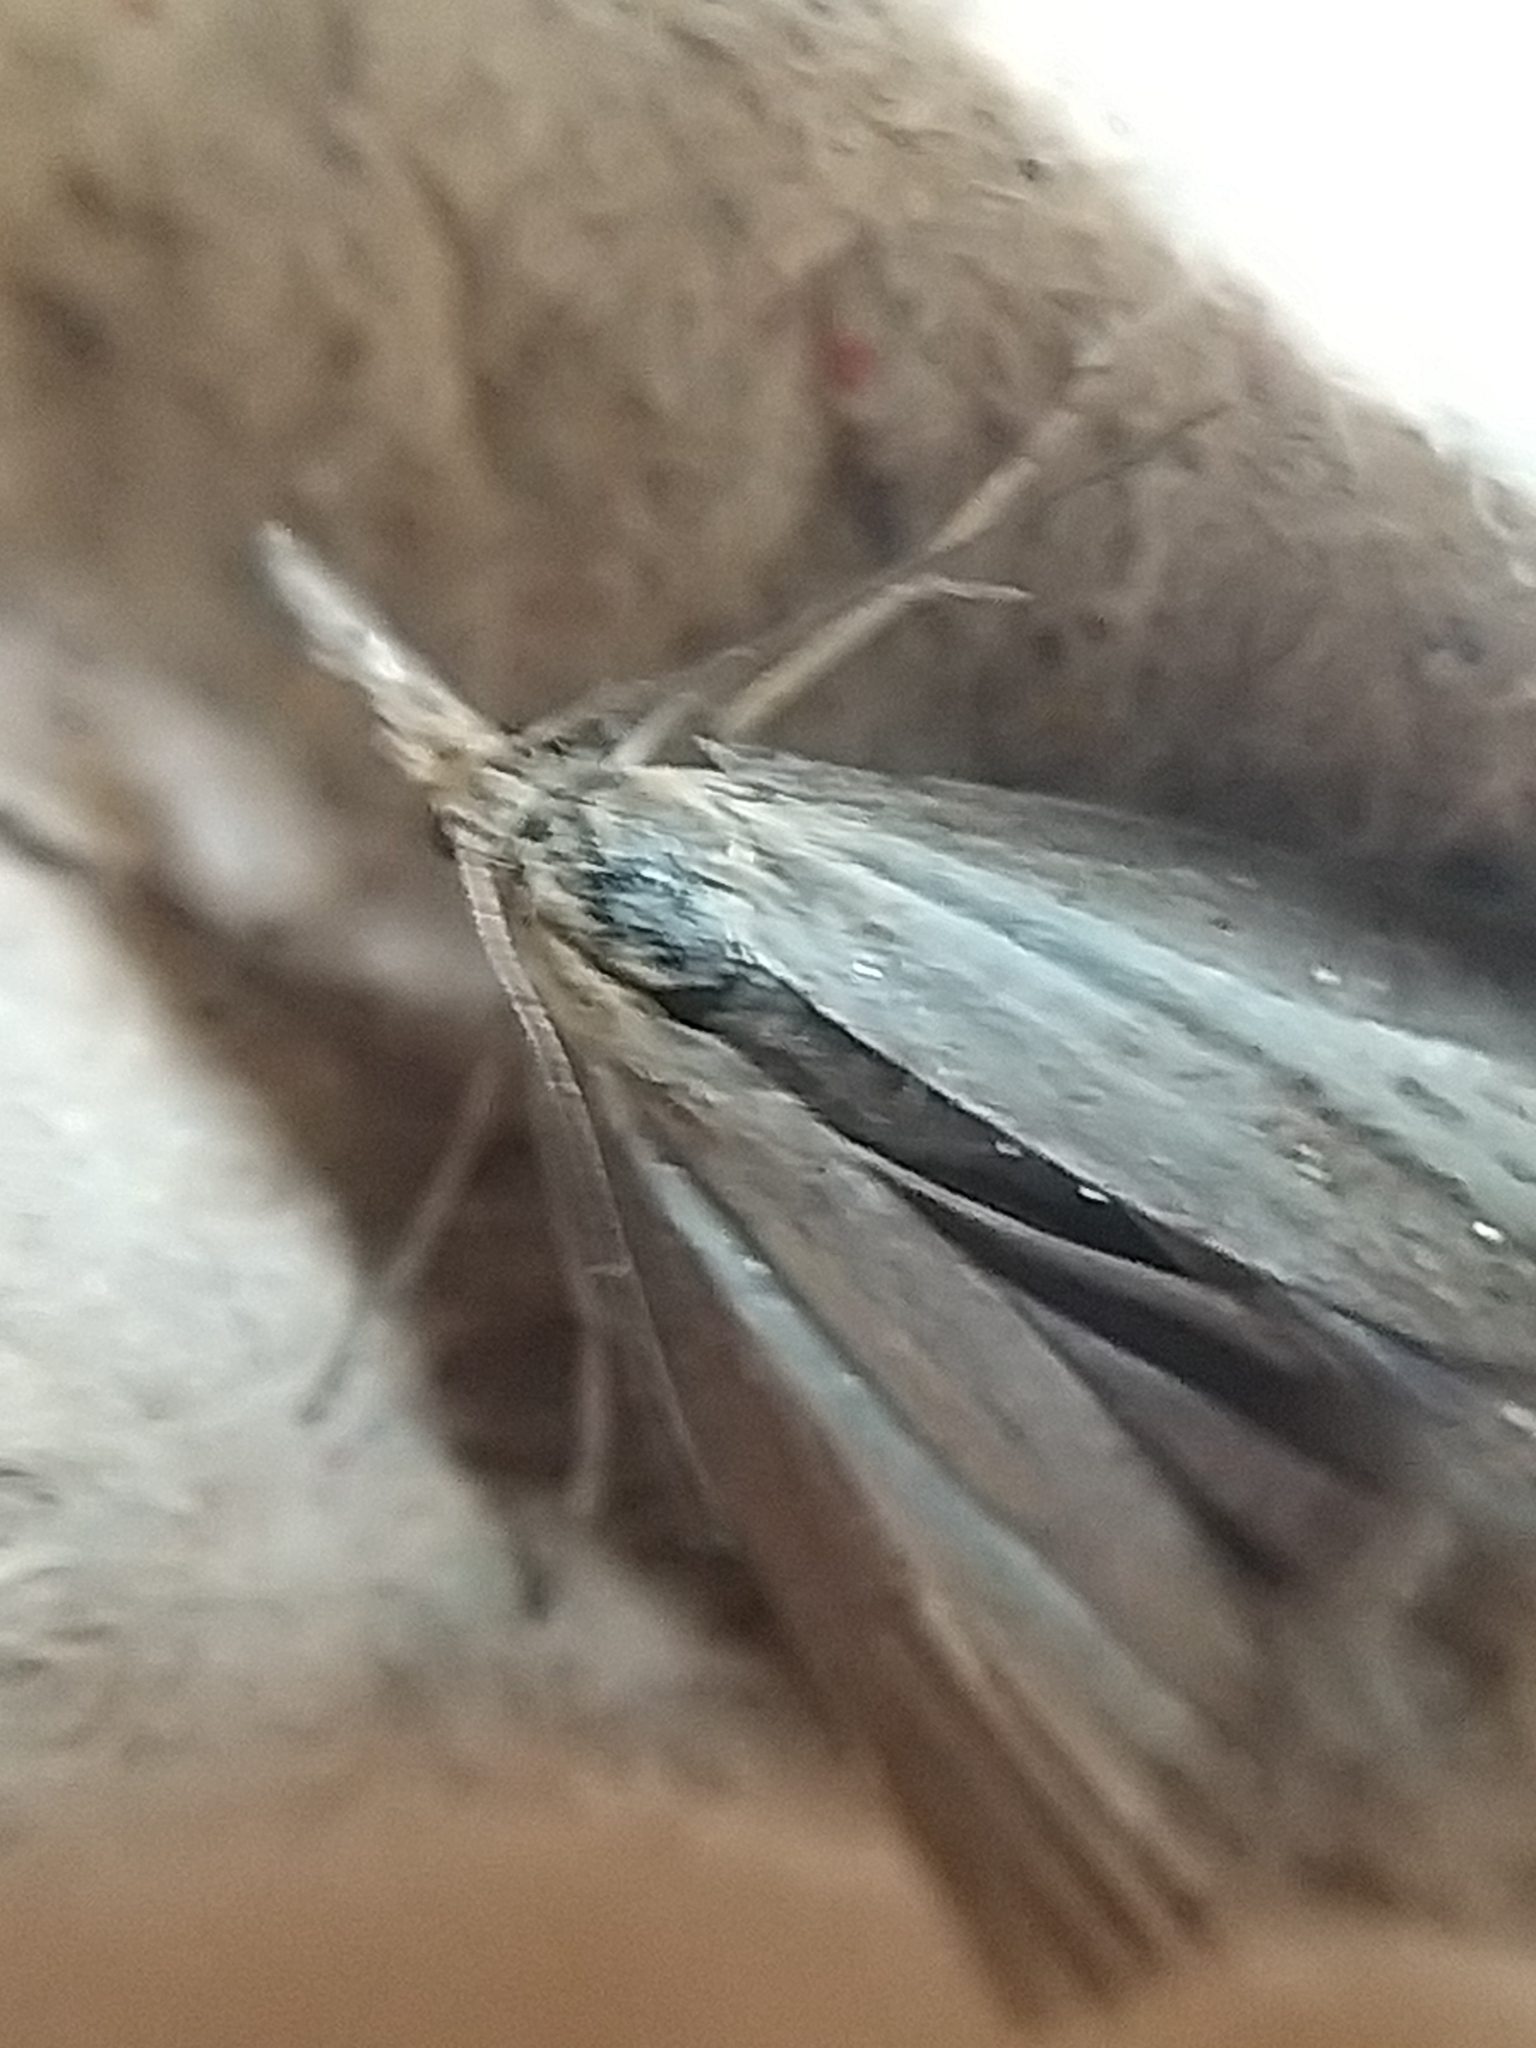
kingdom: Animalia
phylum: Arthropoda
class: Insecta
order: Lepidoptera
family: Crambidae
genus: Agriphila
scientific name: Agriphila straminella
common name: Straw grass-veneer
